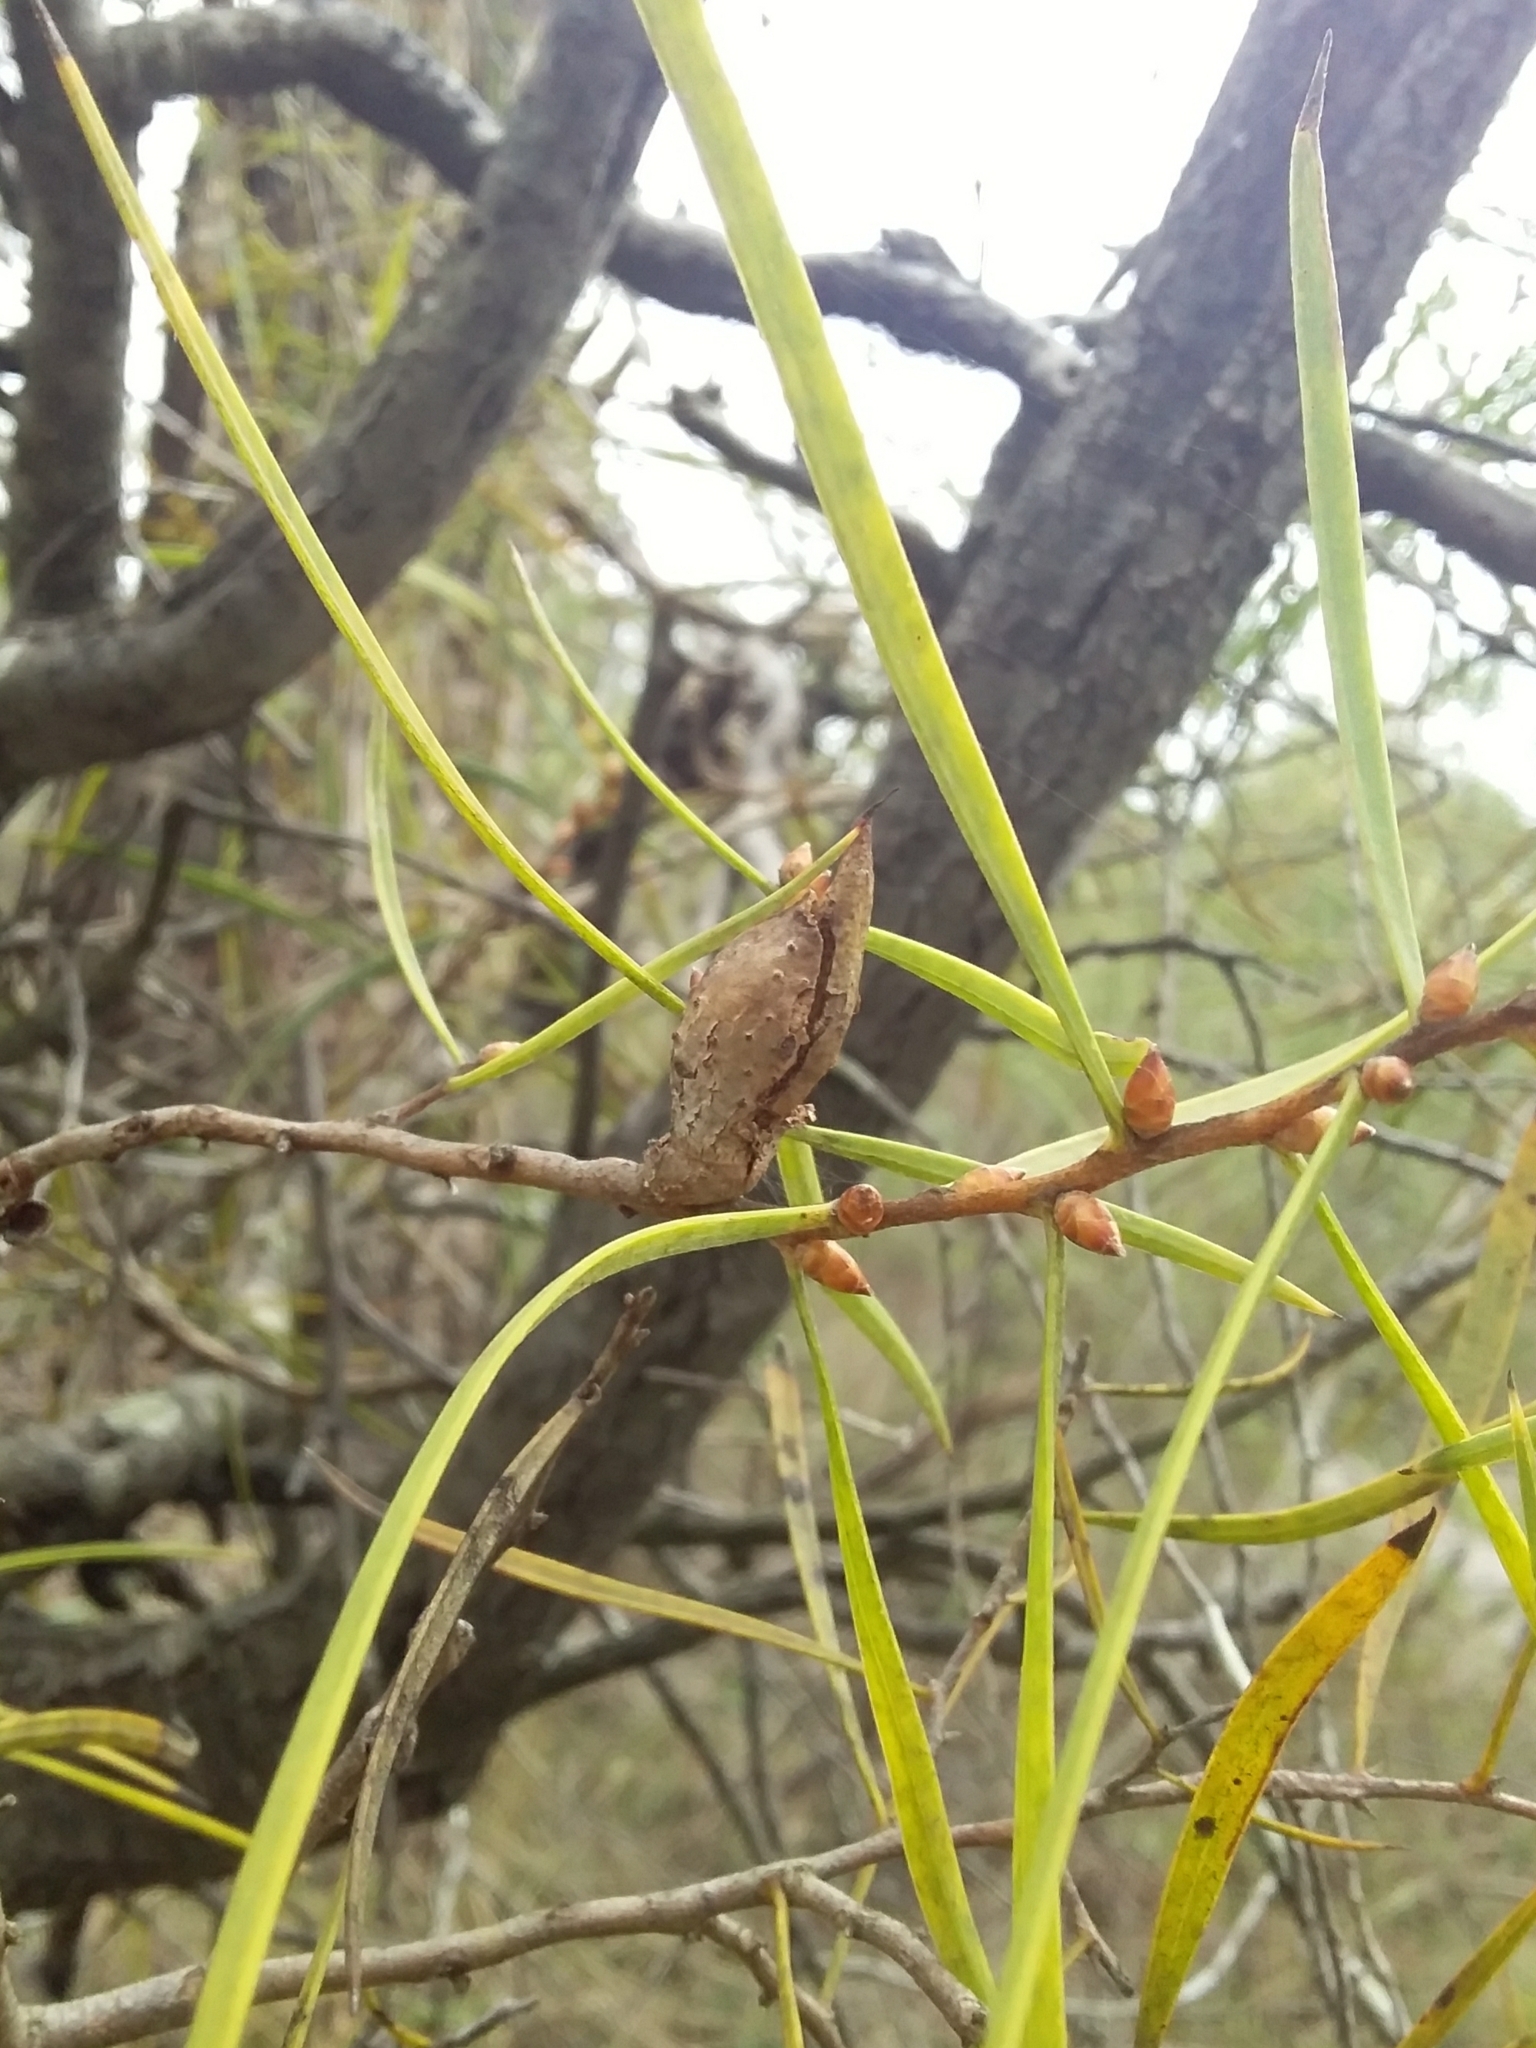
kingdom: Plantae
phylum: Tracheophyta
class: Magnoliopsida
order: Proteales
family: Proteaceae
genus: Hakea
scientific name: Hakea carinata
